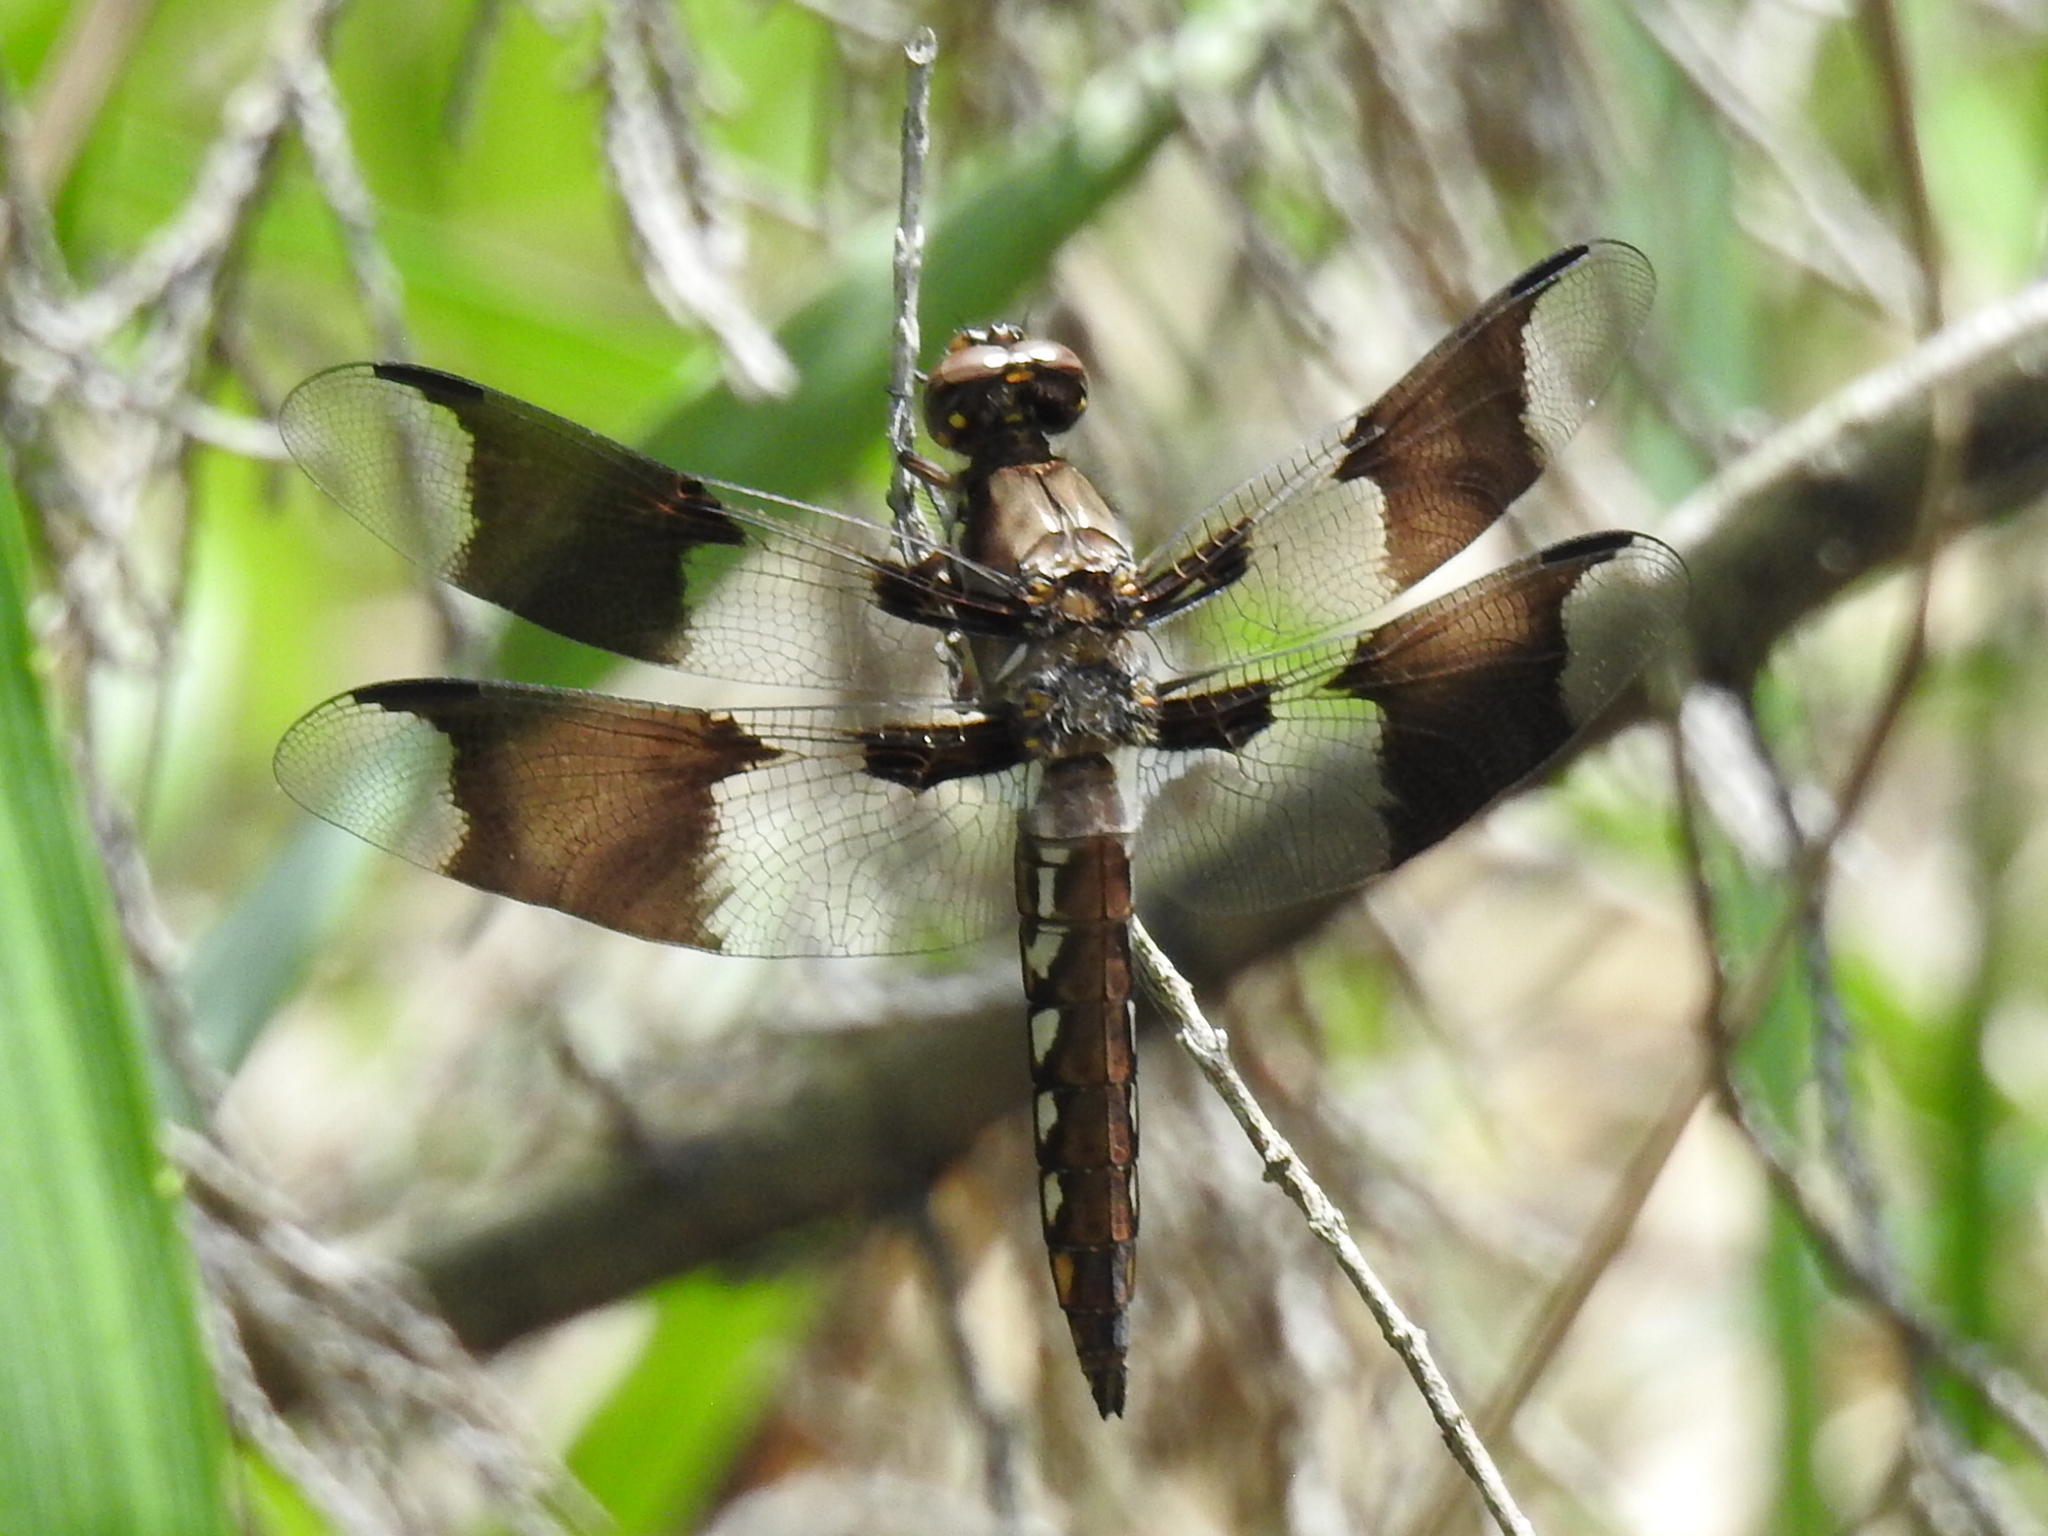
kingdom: Animalia
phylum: Arthropoda
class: Insecta
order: Odonata
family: Libellulidae
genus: Plathemis
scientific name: Plathemis lydia
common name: Common whitetail
